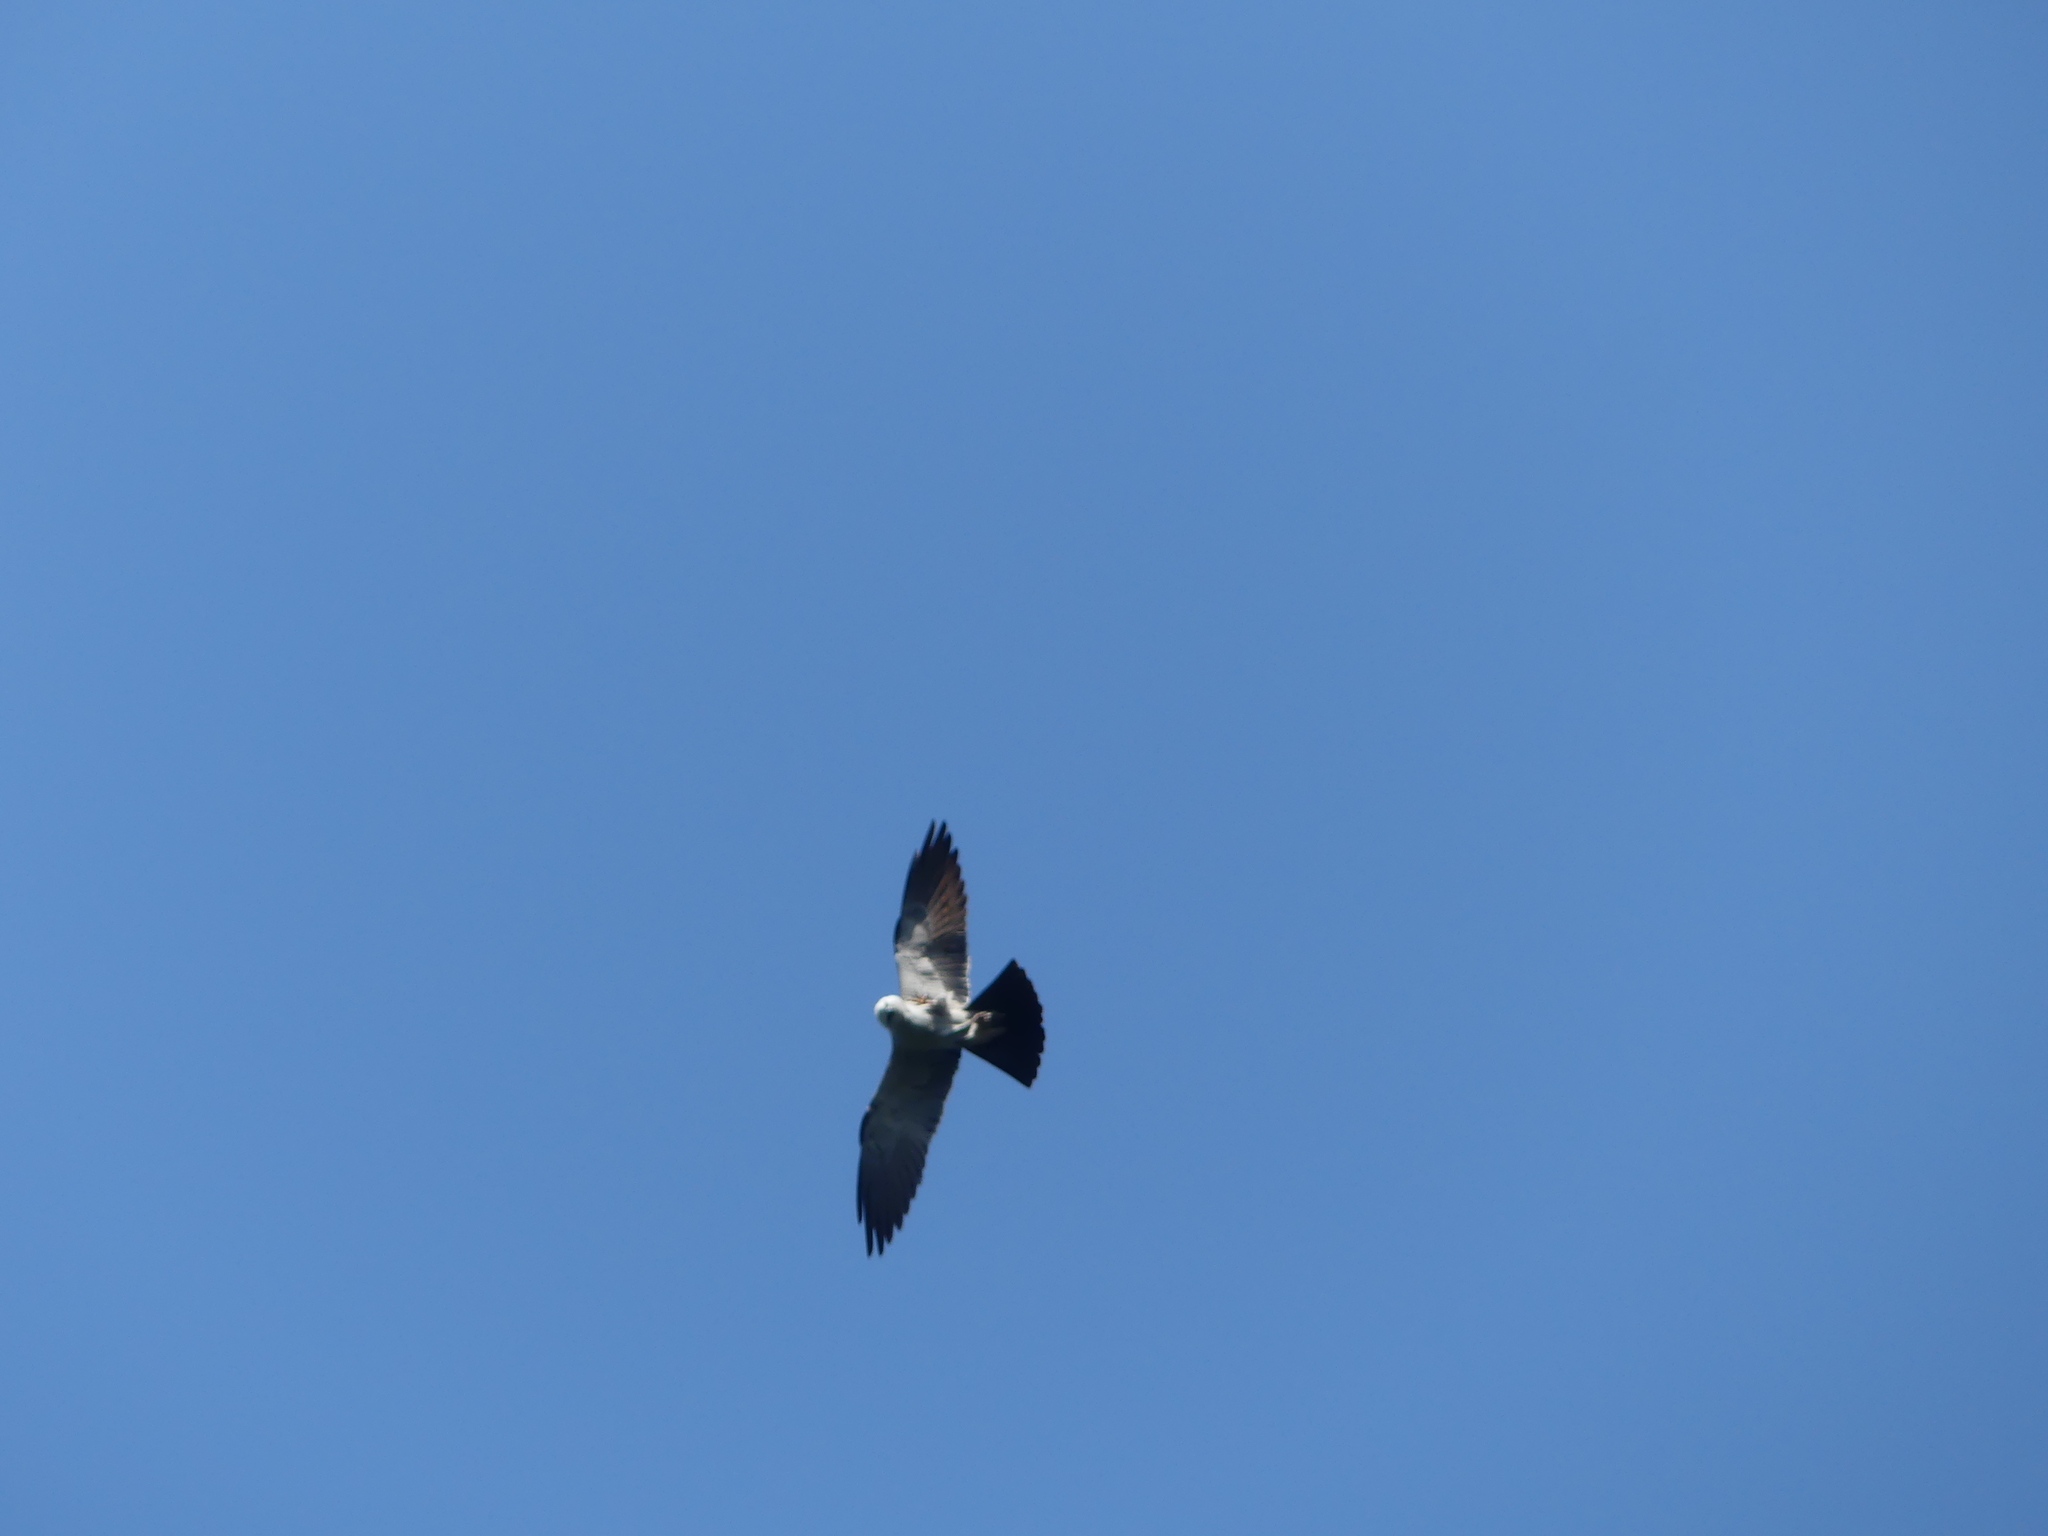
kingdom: Animalia
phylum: Chordata
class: Aves
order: Accipitriformes
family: Accipitridae
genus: Ictinia
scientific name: Ictinia mississippiensis
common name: Mississippi kite
